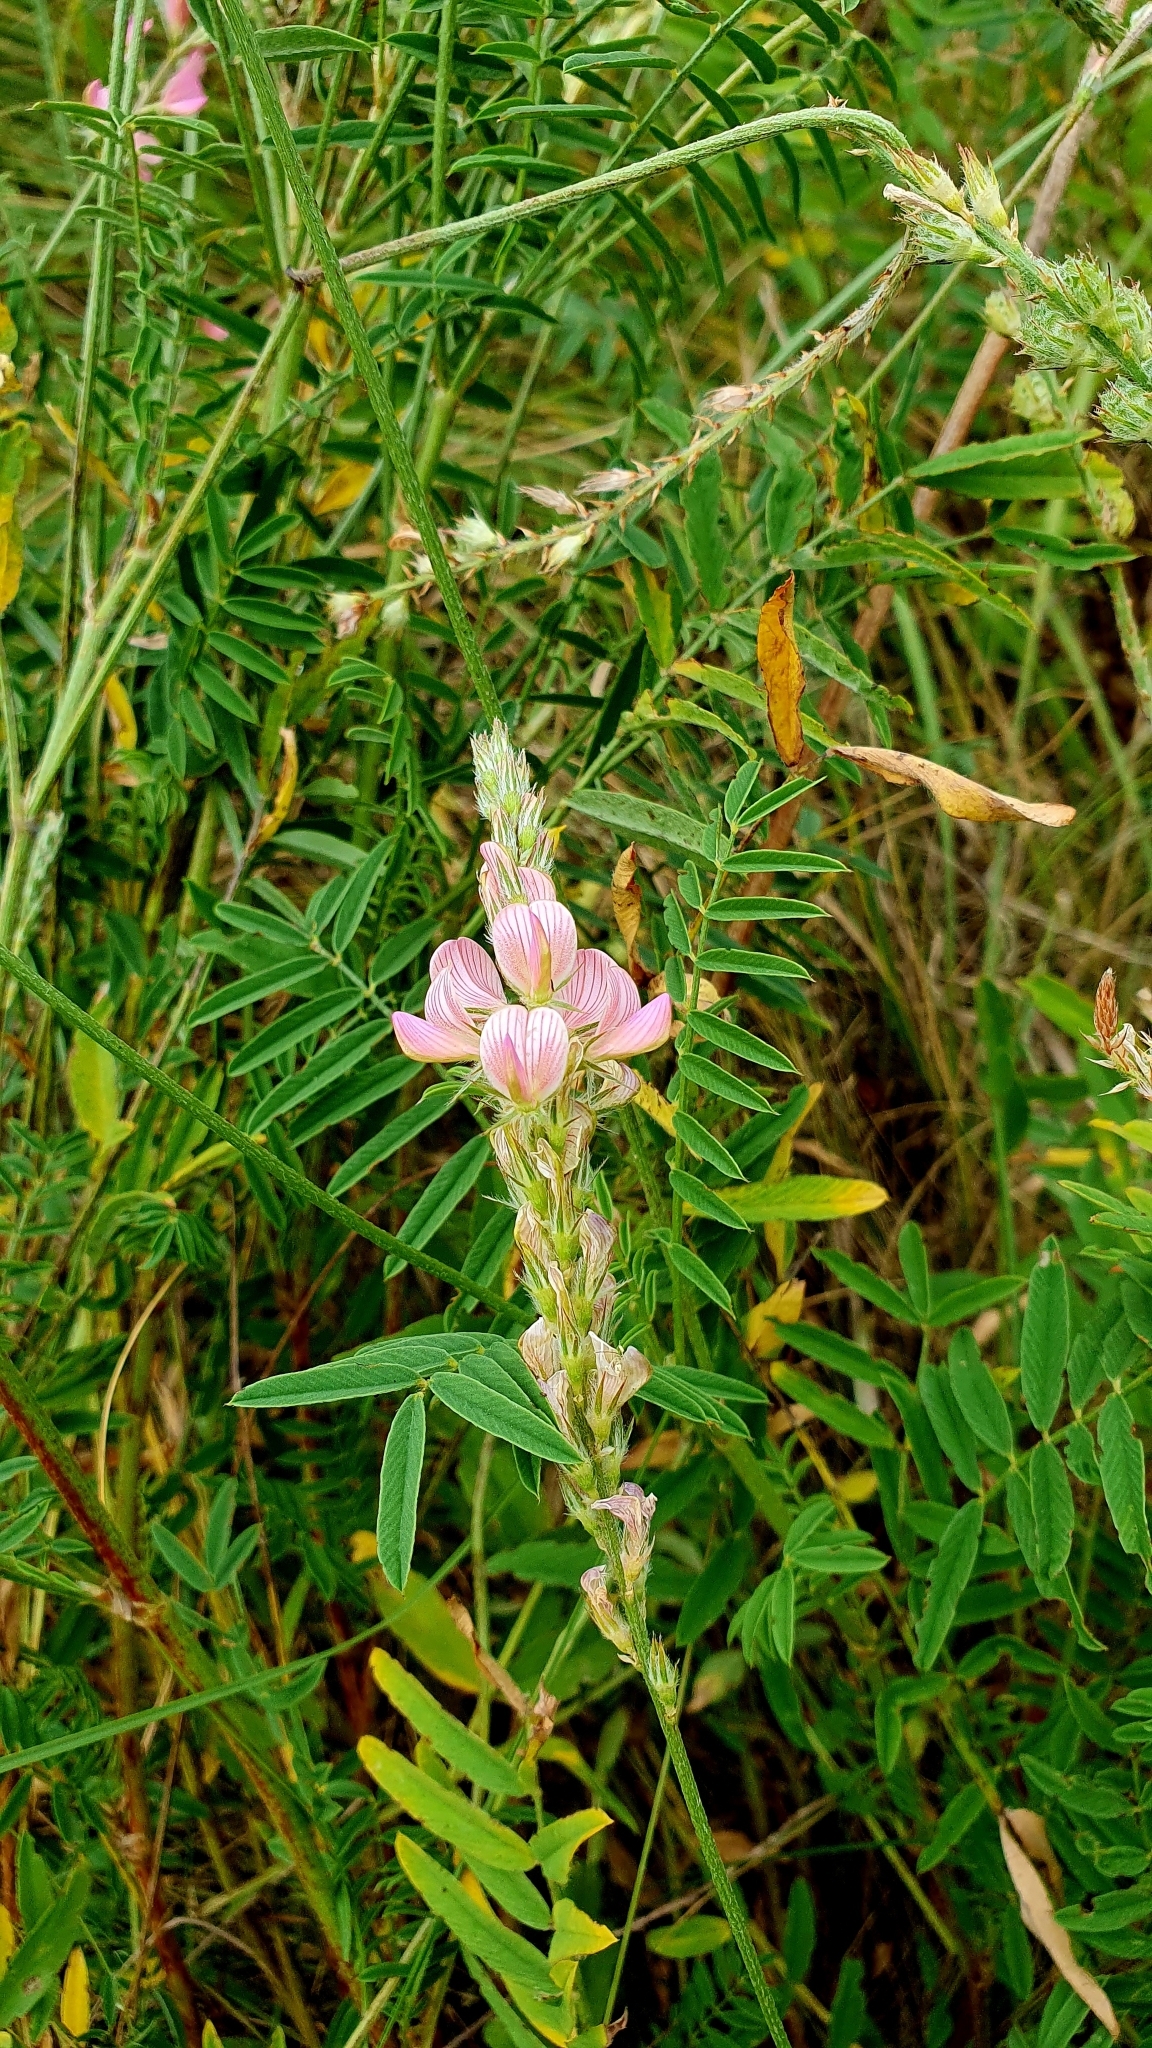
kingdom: Plantae
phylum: Tracheophyta
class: Magnoliopsida
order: Fabales
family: Fabaceae
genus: Onobrychis
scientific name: Onobrychis arenaria
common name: Sand esparcet
